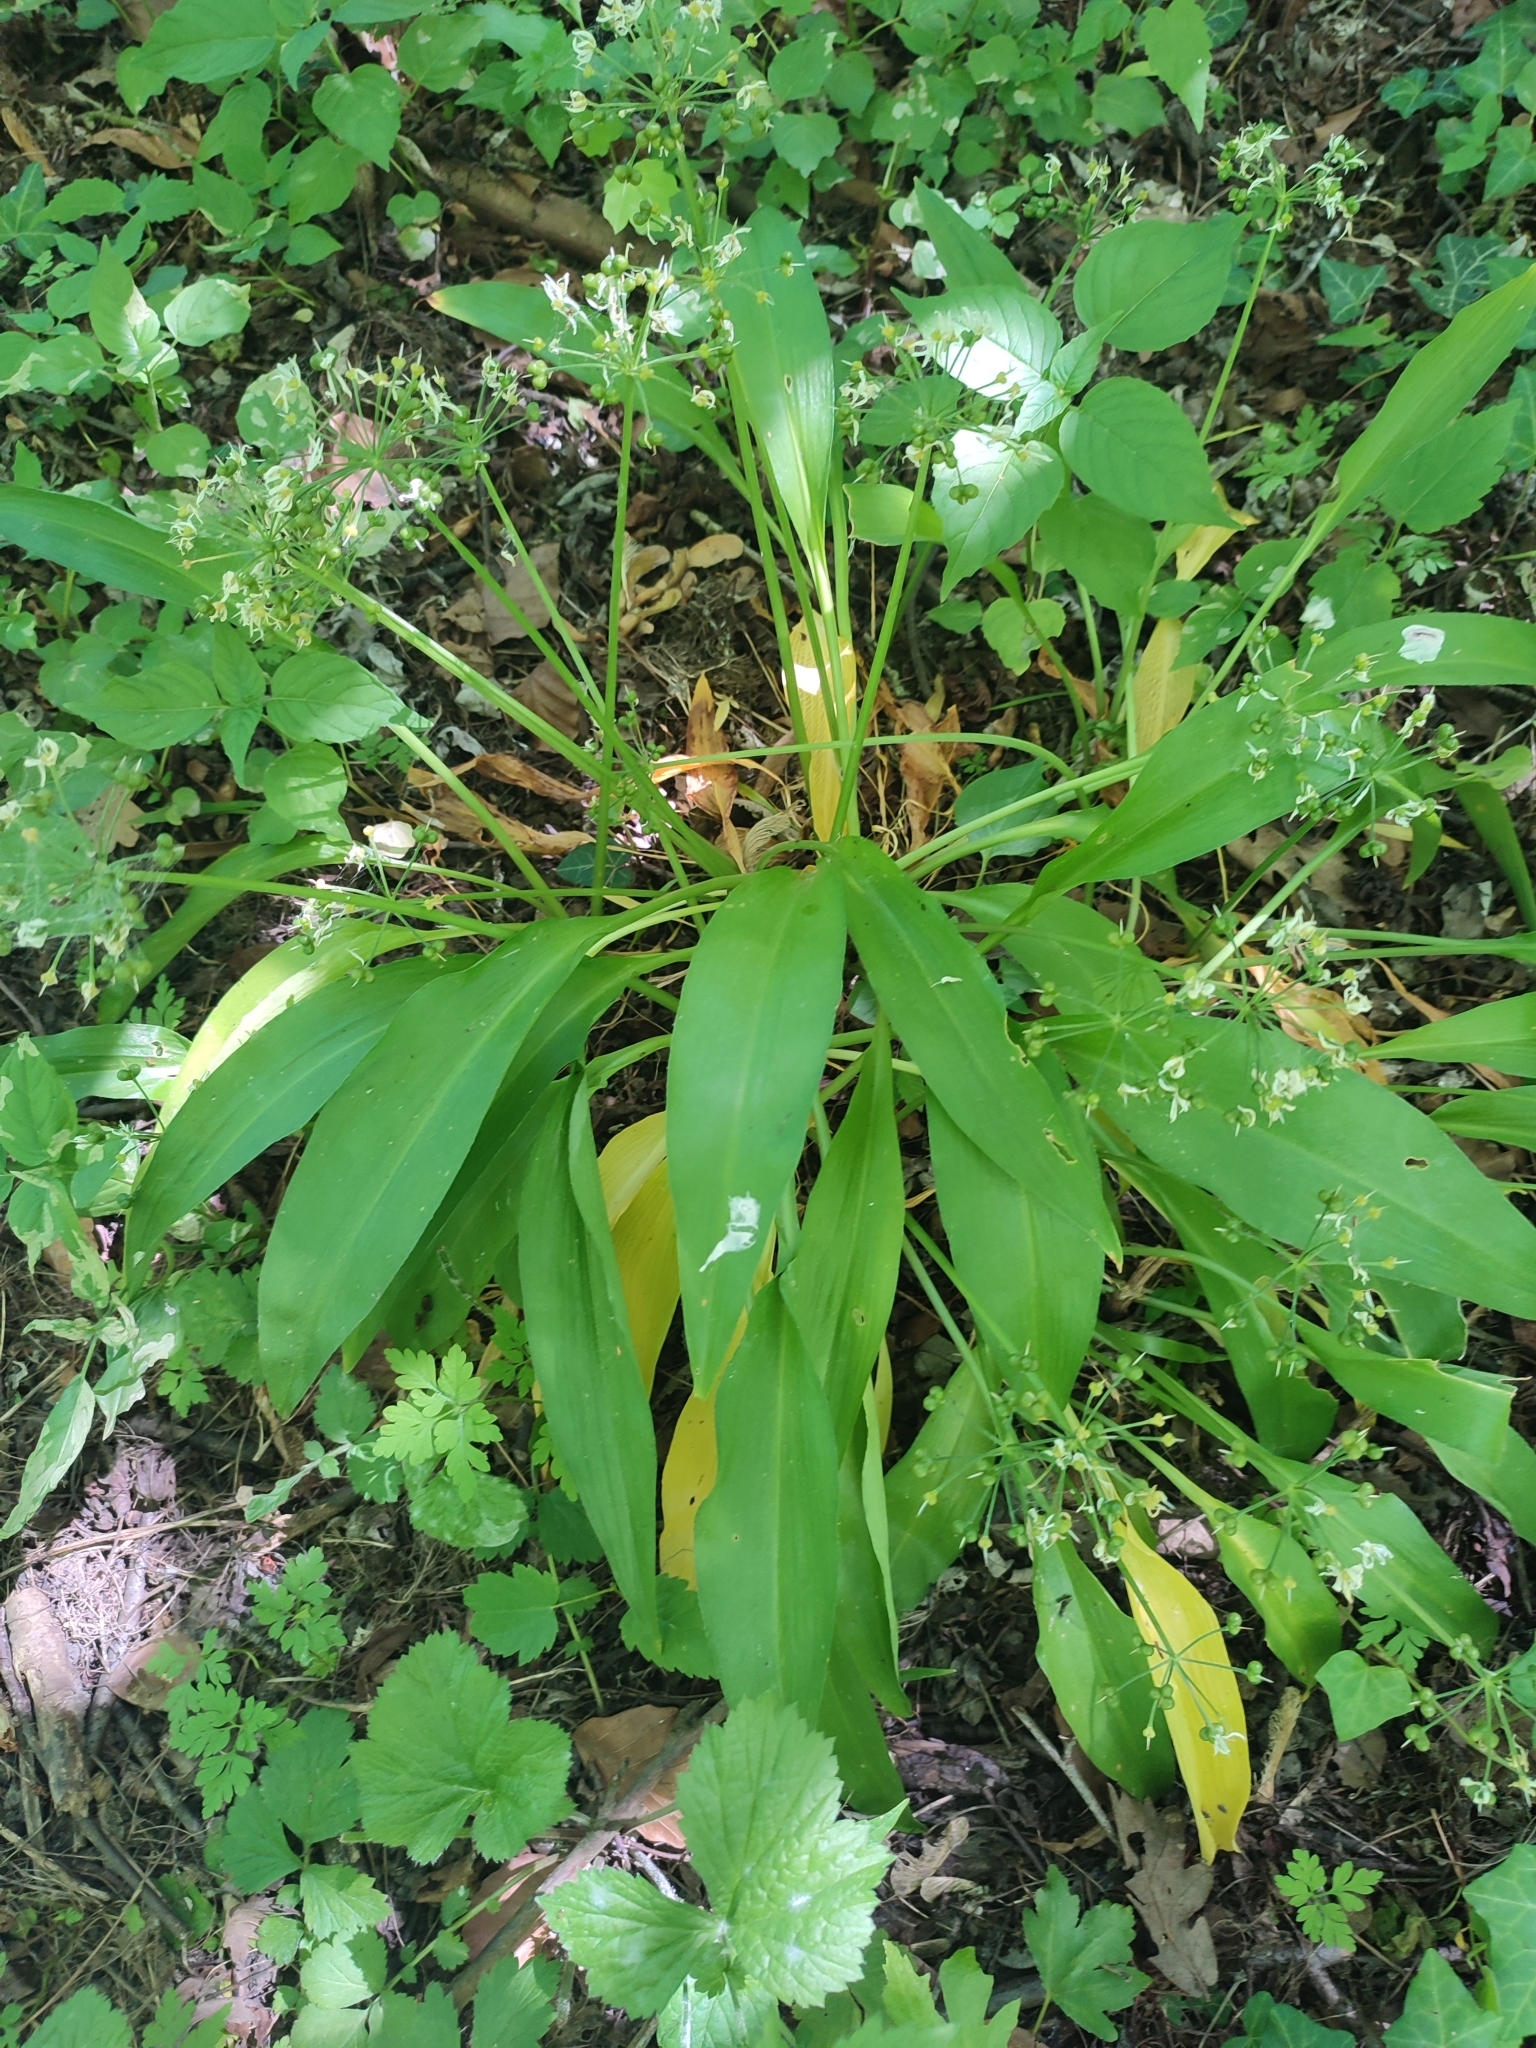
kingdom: Plantae
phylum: Tracheophyta
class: Liliopsida
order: Asparagales
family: Amaryllidaceae
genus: Allium
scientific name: Allium ursinum
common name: Ramsons
